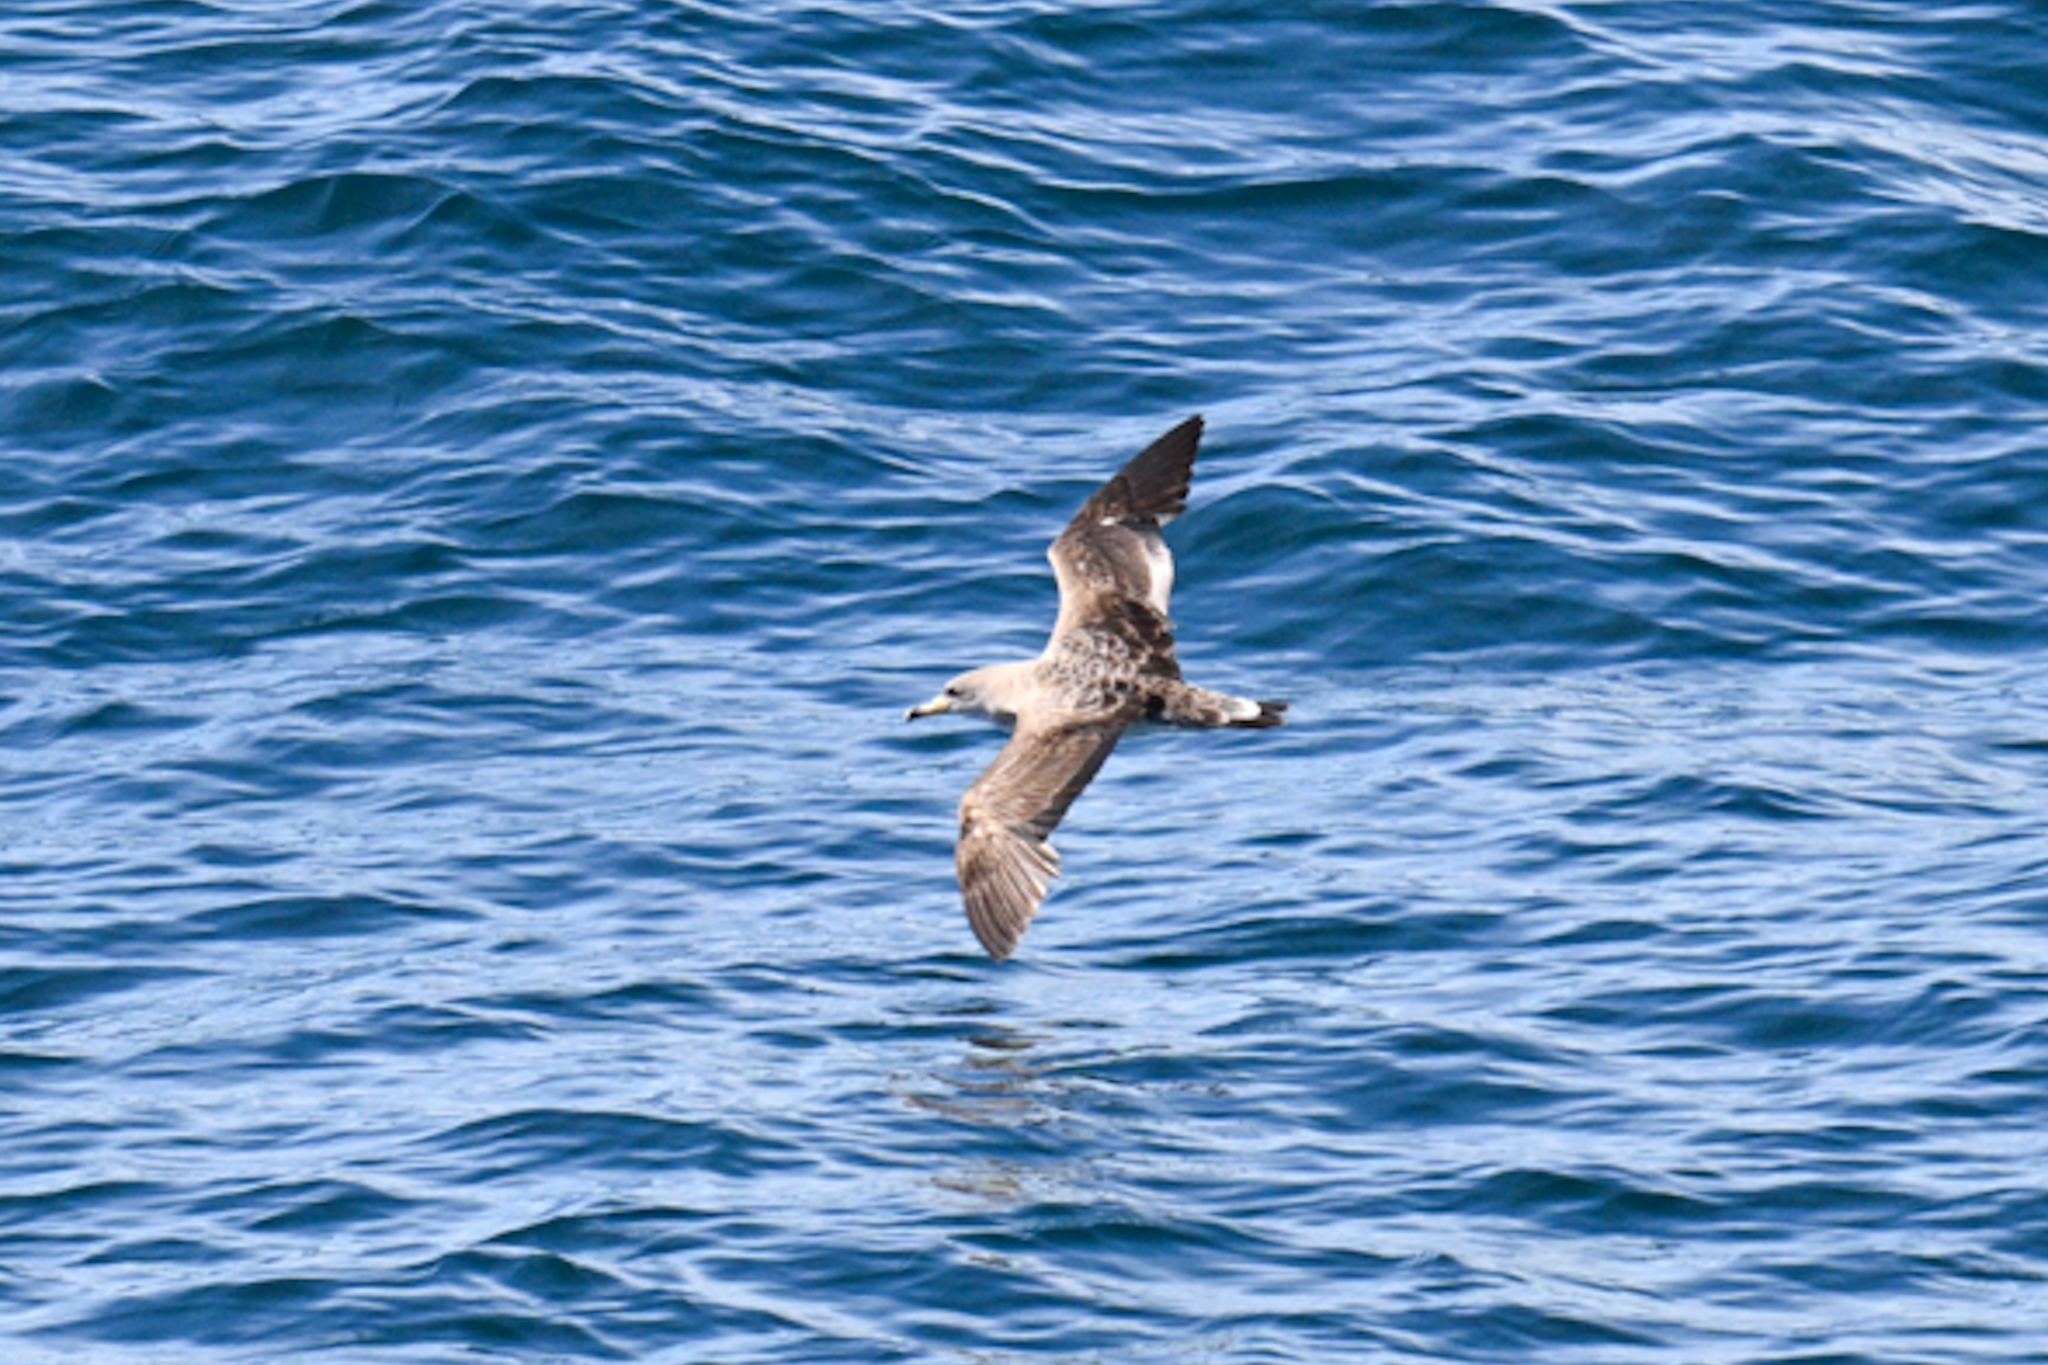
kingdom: Animalia
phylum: Chordata
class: Aves
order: Procellariiformes
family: Procellariidae
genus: Calonectris
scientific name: Calonectris diomedea
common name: Cory's shearwater
